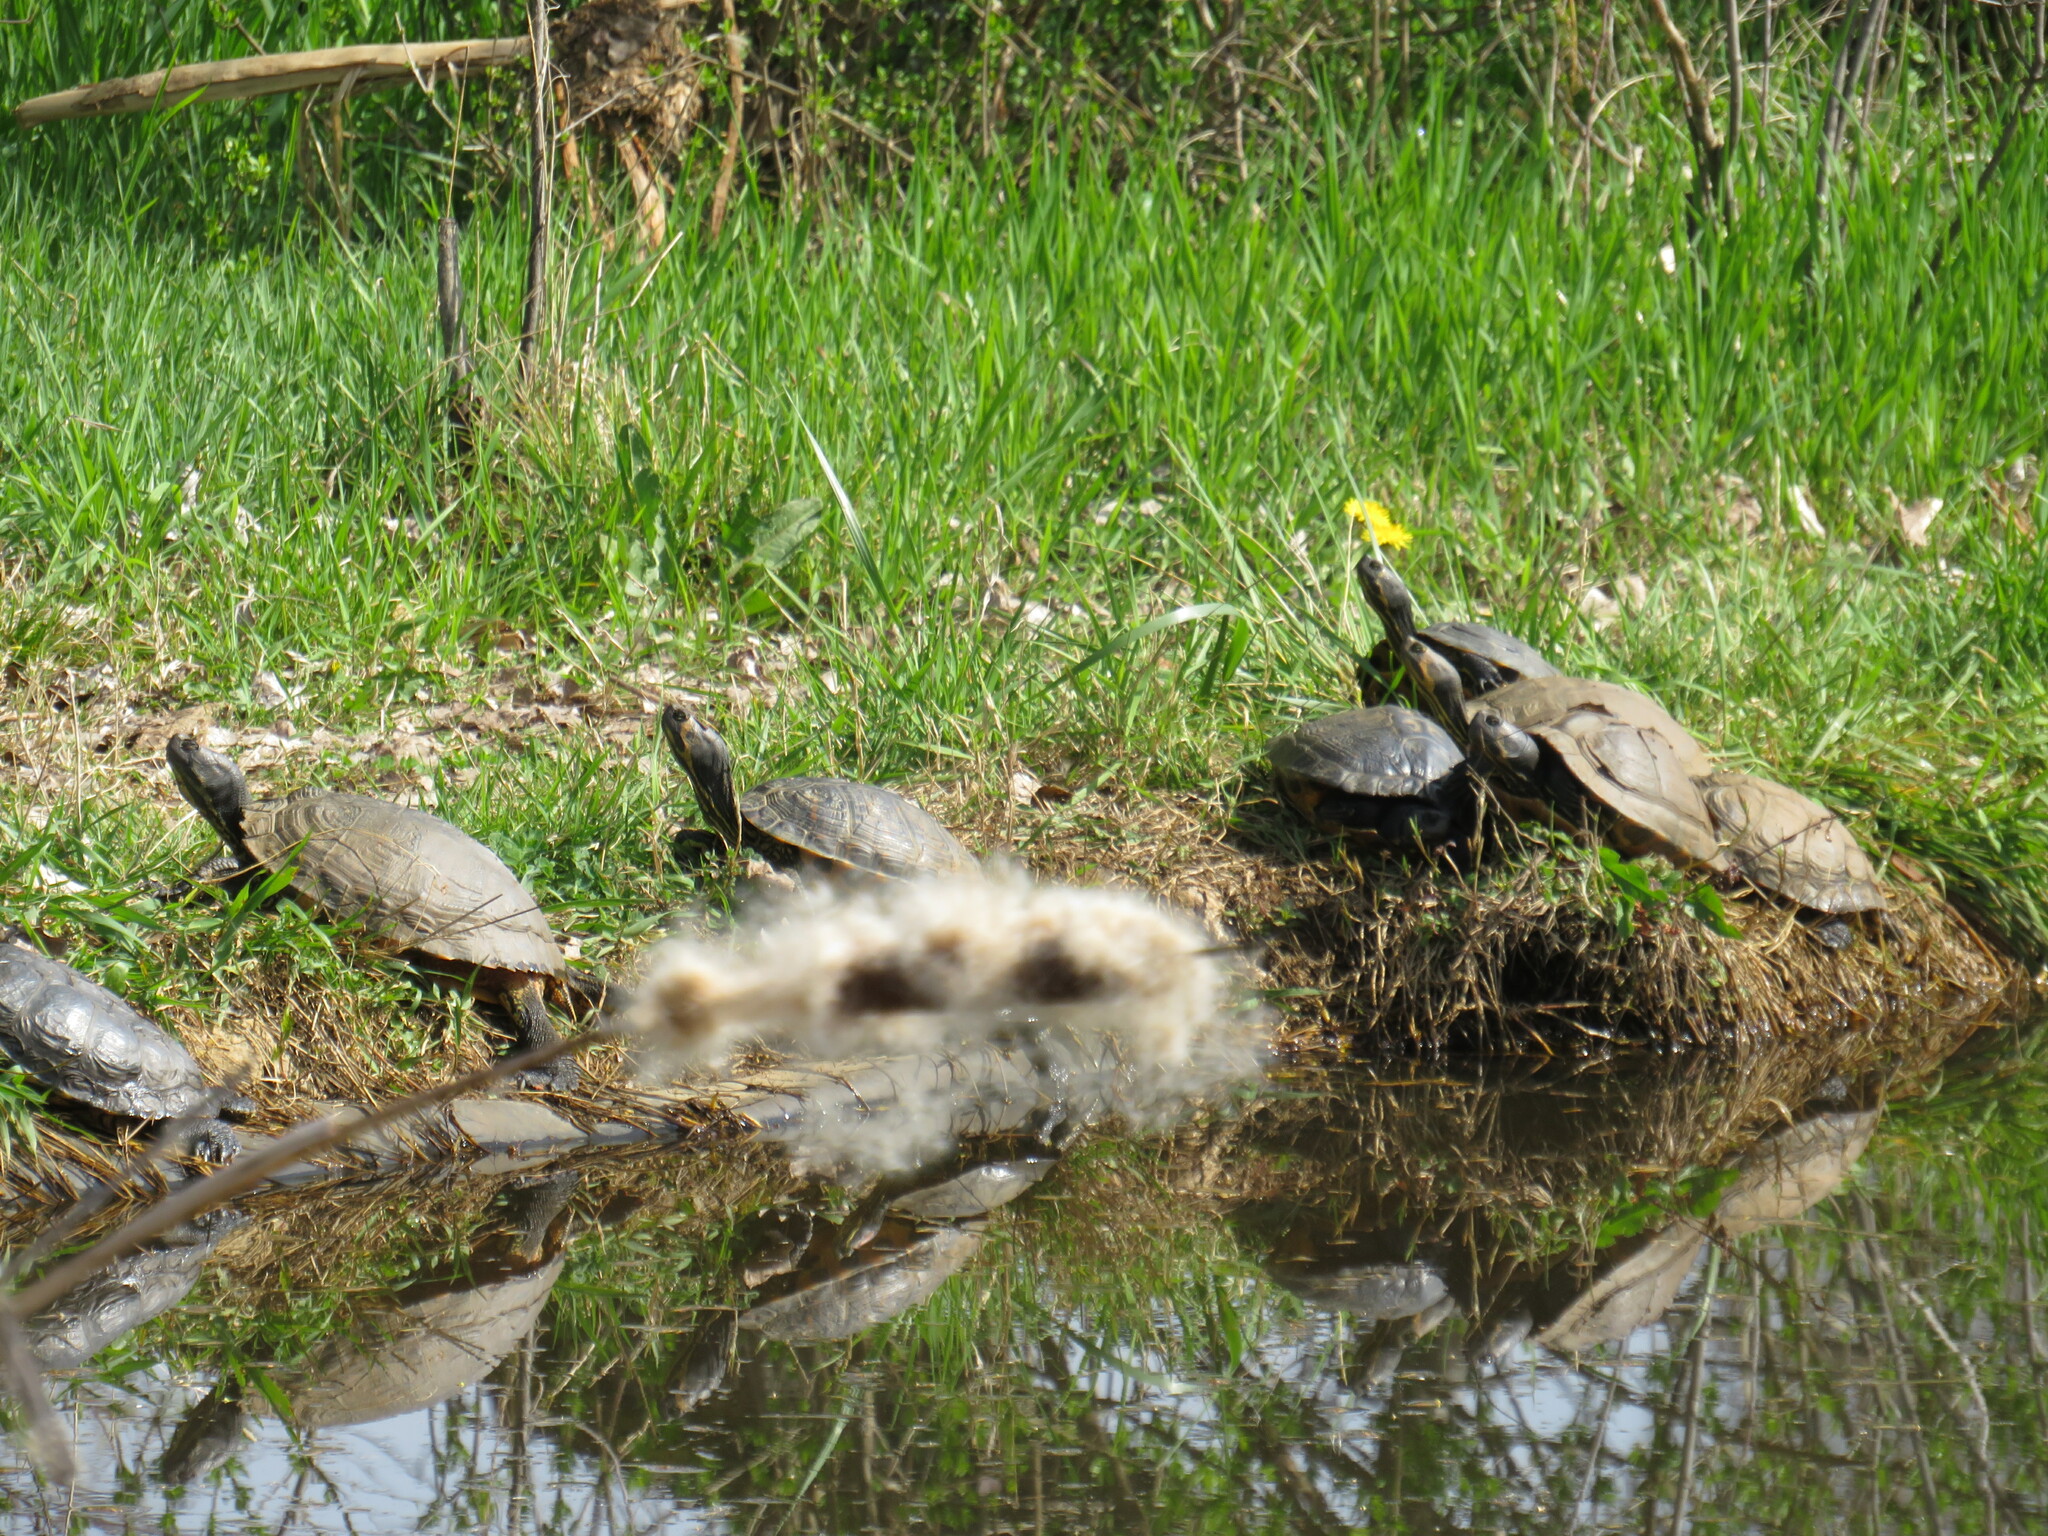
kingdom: Animalia
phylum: Chordata
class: Testudines
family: Emydidae
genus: Trachemys
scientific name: Trachemys scripta
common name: Slider
